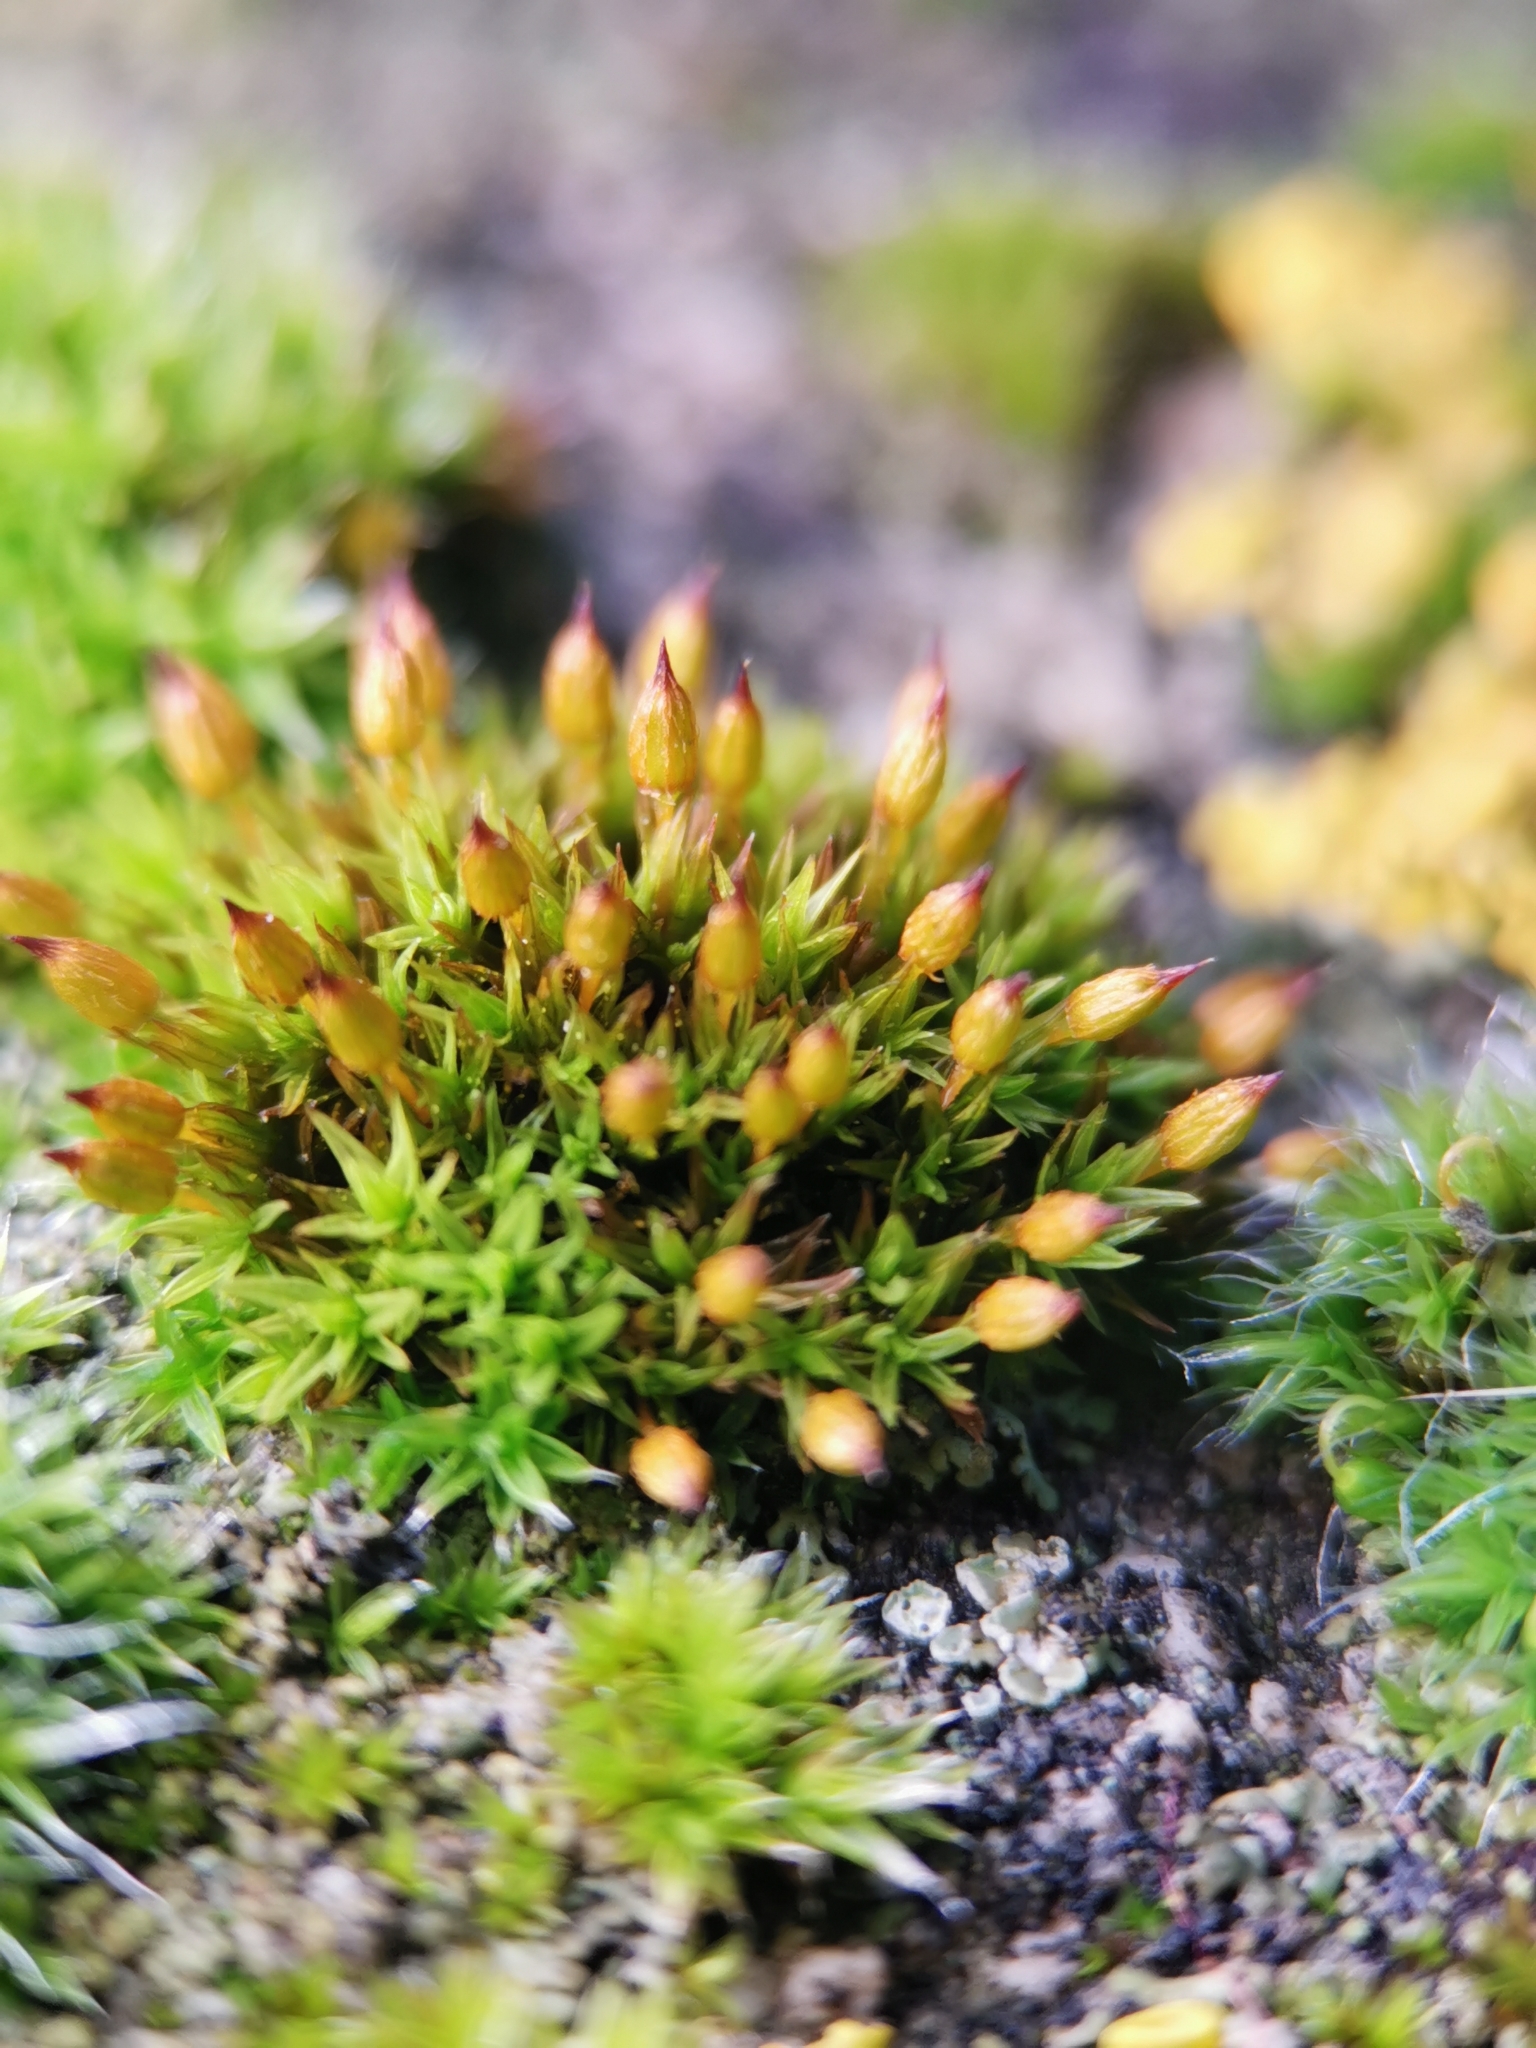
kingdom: Plantae
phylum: Bryophyta
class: Bryopsida
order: Orthotrichales
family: Orthotrichaceae
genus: Orthotrichum
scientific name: Orthotrichum anomalum
